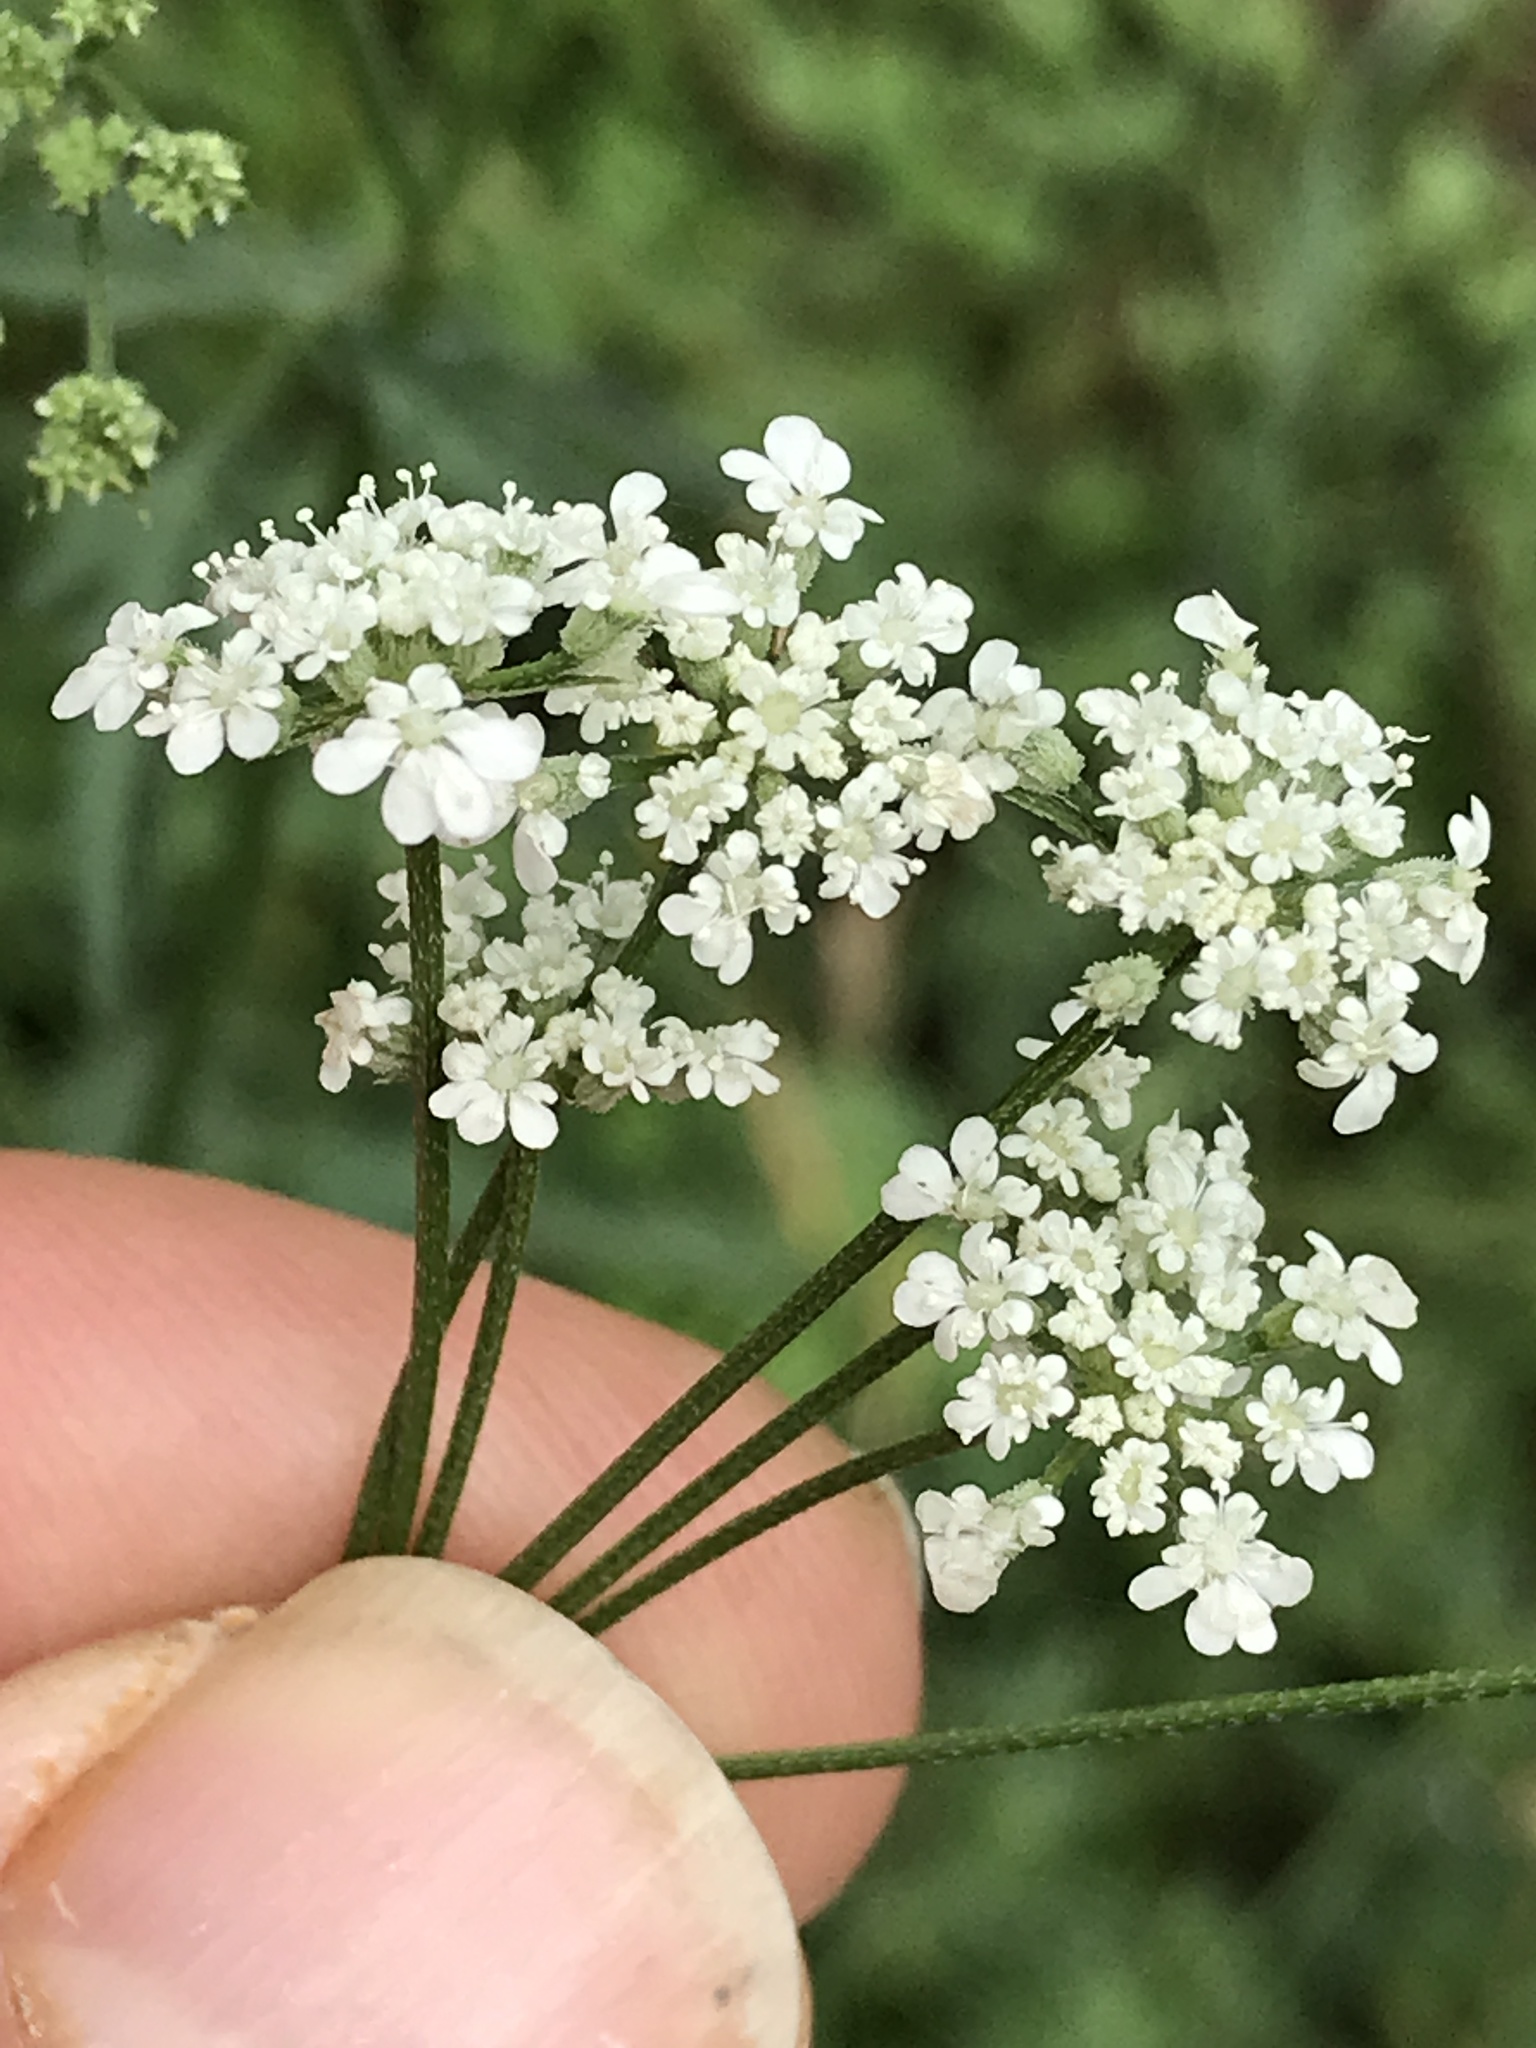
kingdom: Plantae
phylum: Tracheophyta
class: Magnoliopsida
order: Apiales
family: Apiaceae
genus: Torilis
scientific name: Torilis arvensis
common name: Spreading hedge-parsley
